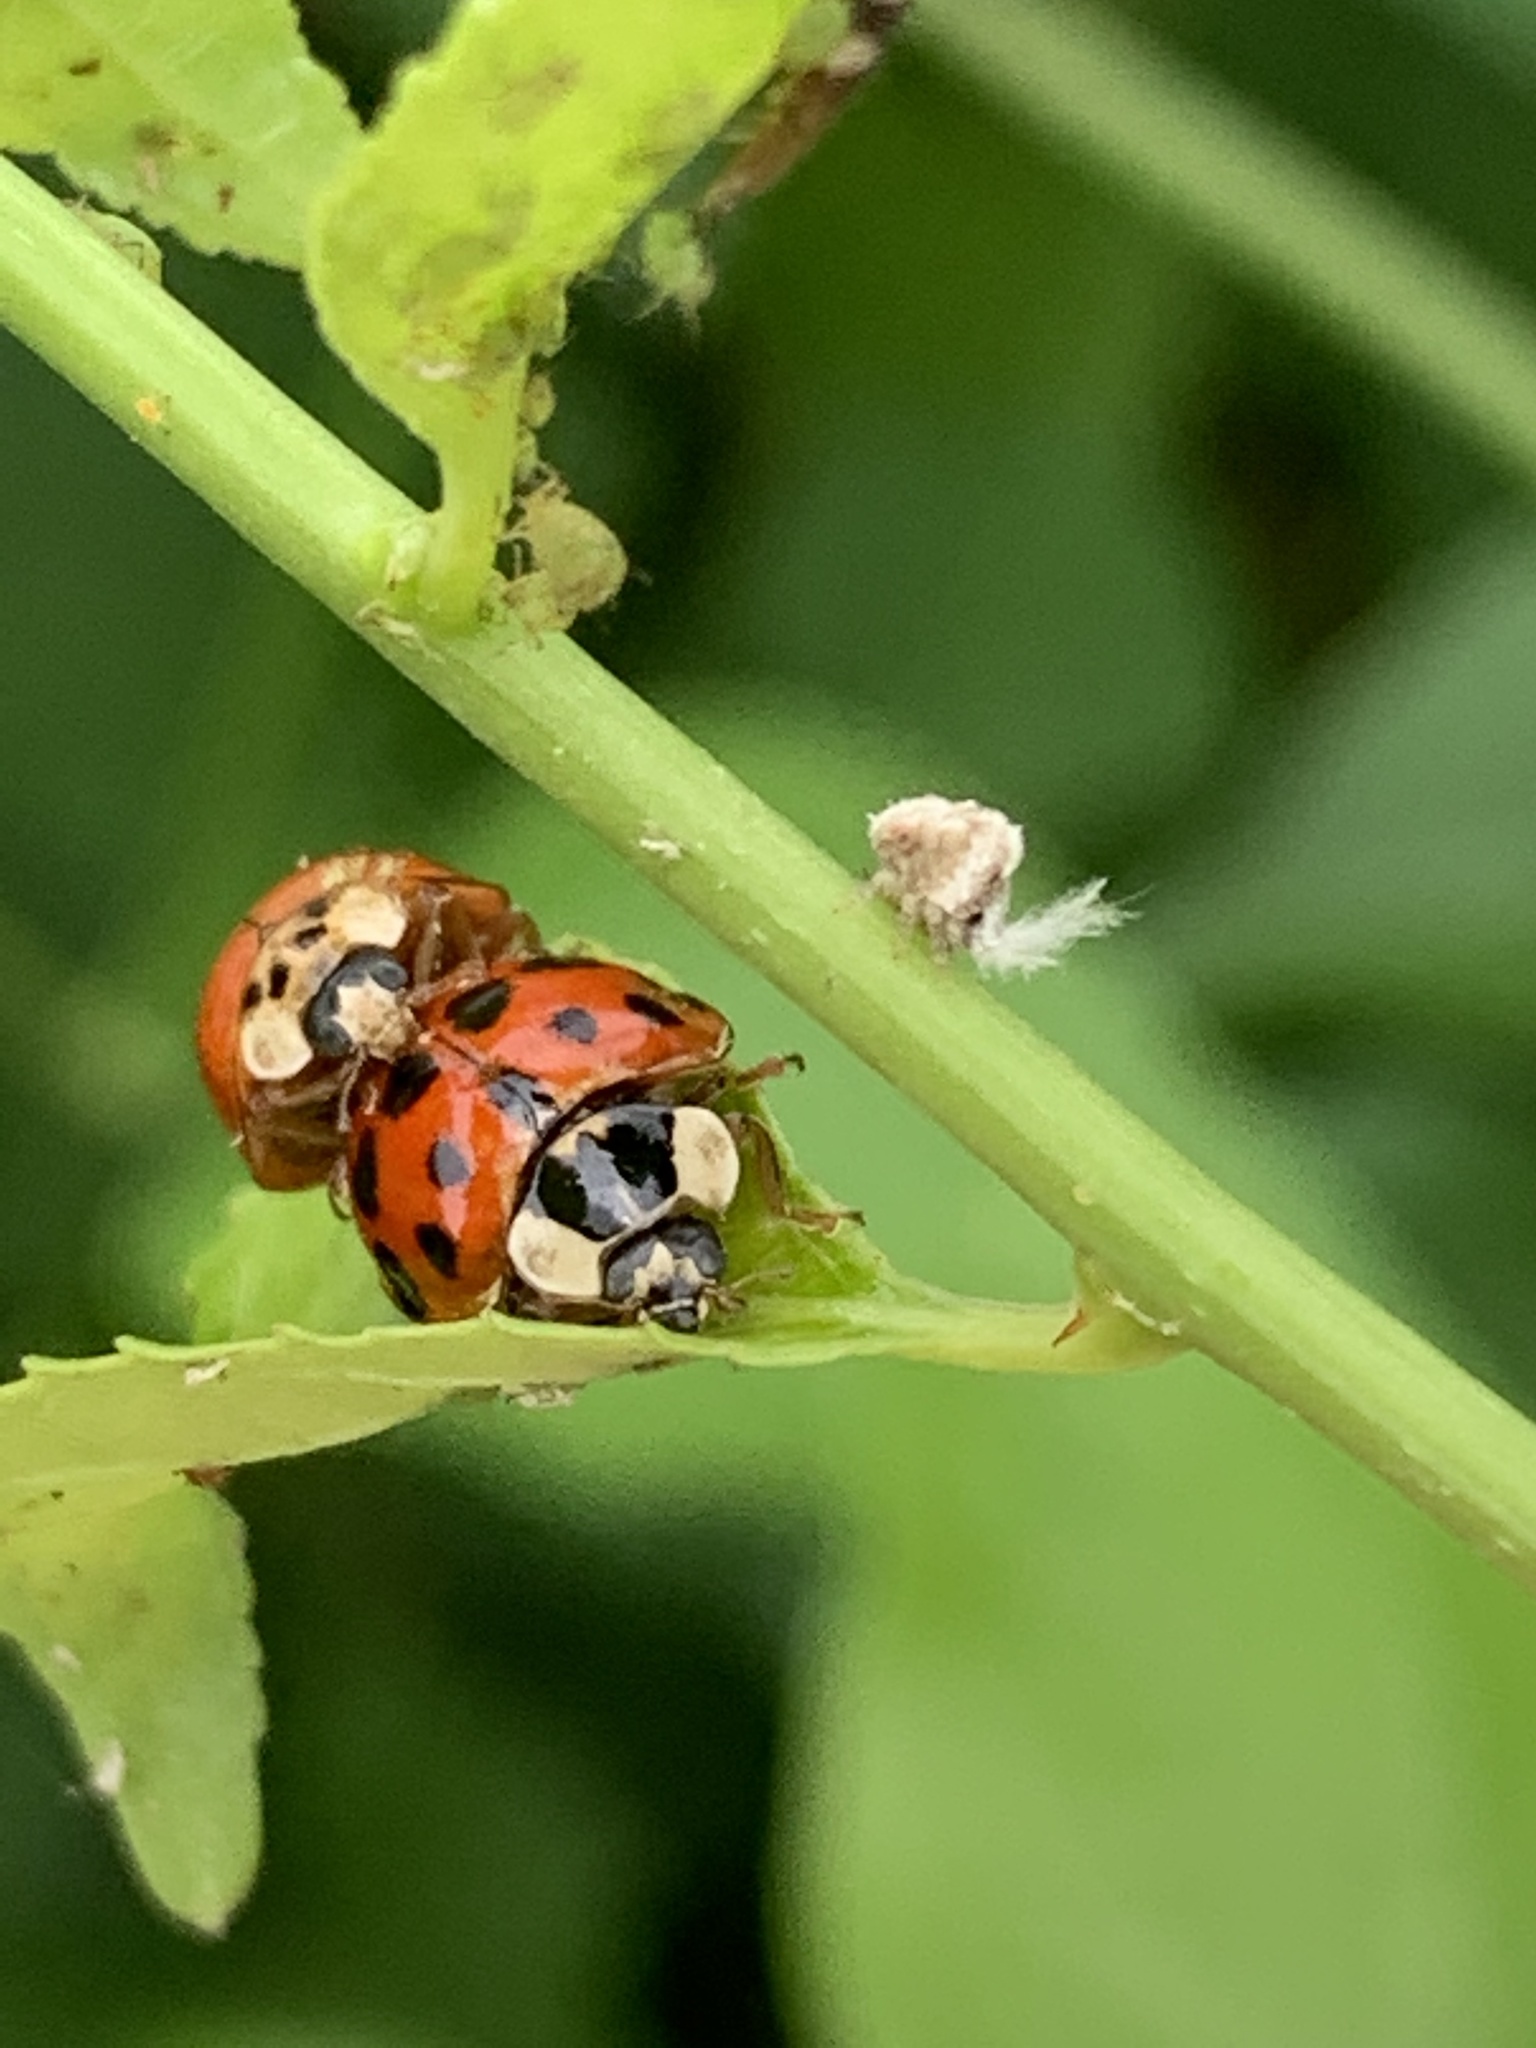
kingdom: Animalia
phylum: Arthropoda
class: Insecta
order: Coleoptera
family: Coccinellidae
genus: Harmonia
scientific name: Harmonia axyridis
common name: Harlequin ladybird
